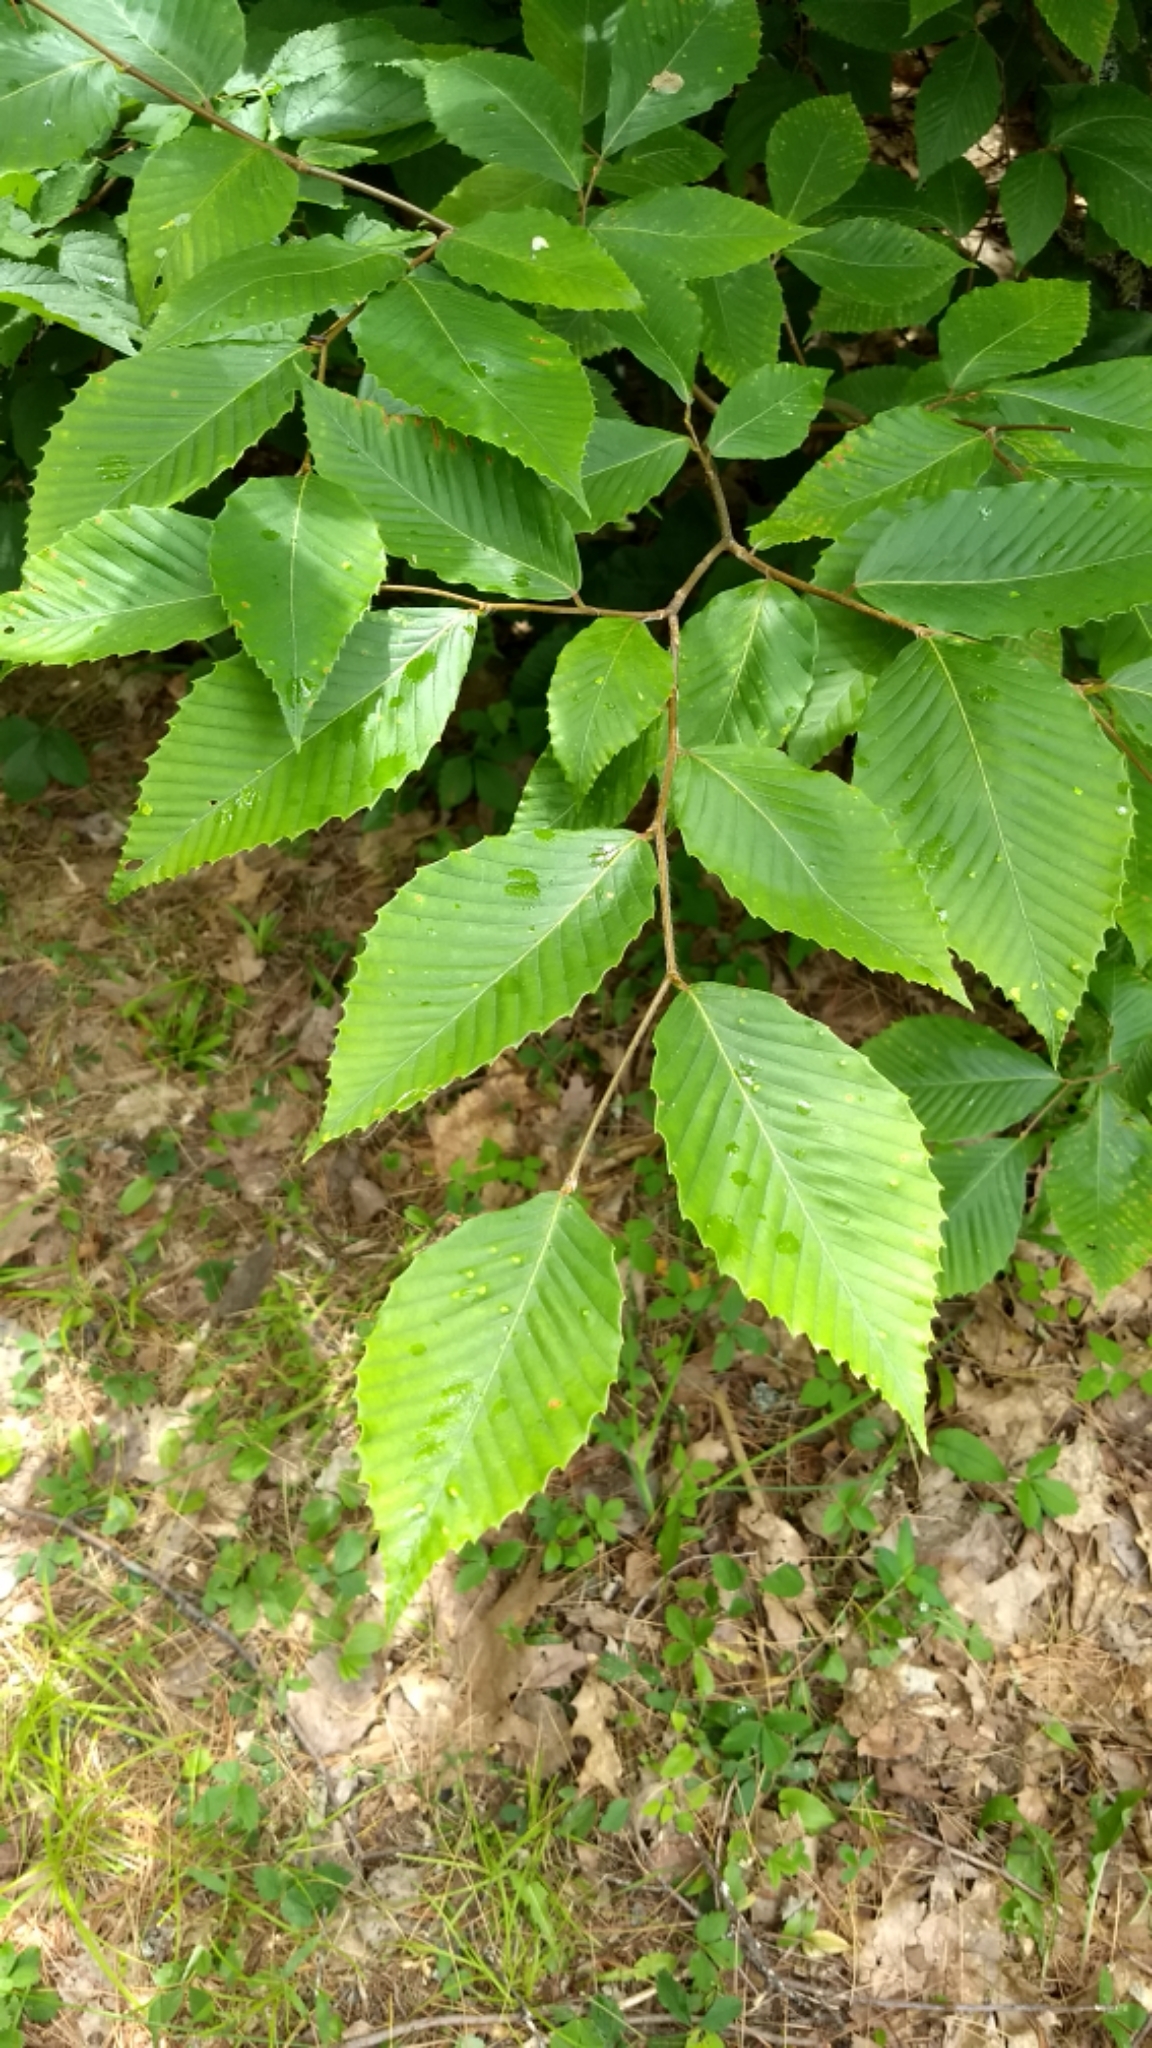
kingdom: Plantae
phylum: Tracheophyta
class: Magnoliopsida
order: Fagales
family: Fagaceae
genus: Fagus
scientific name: Fagus grandifolia
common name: American beech
